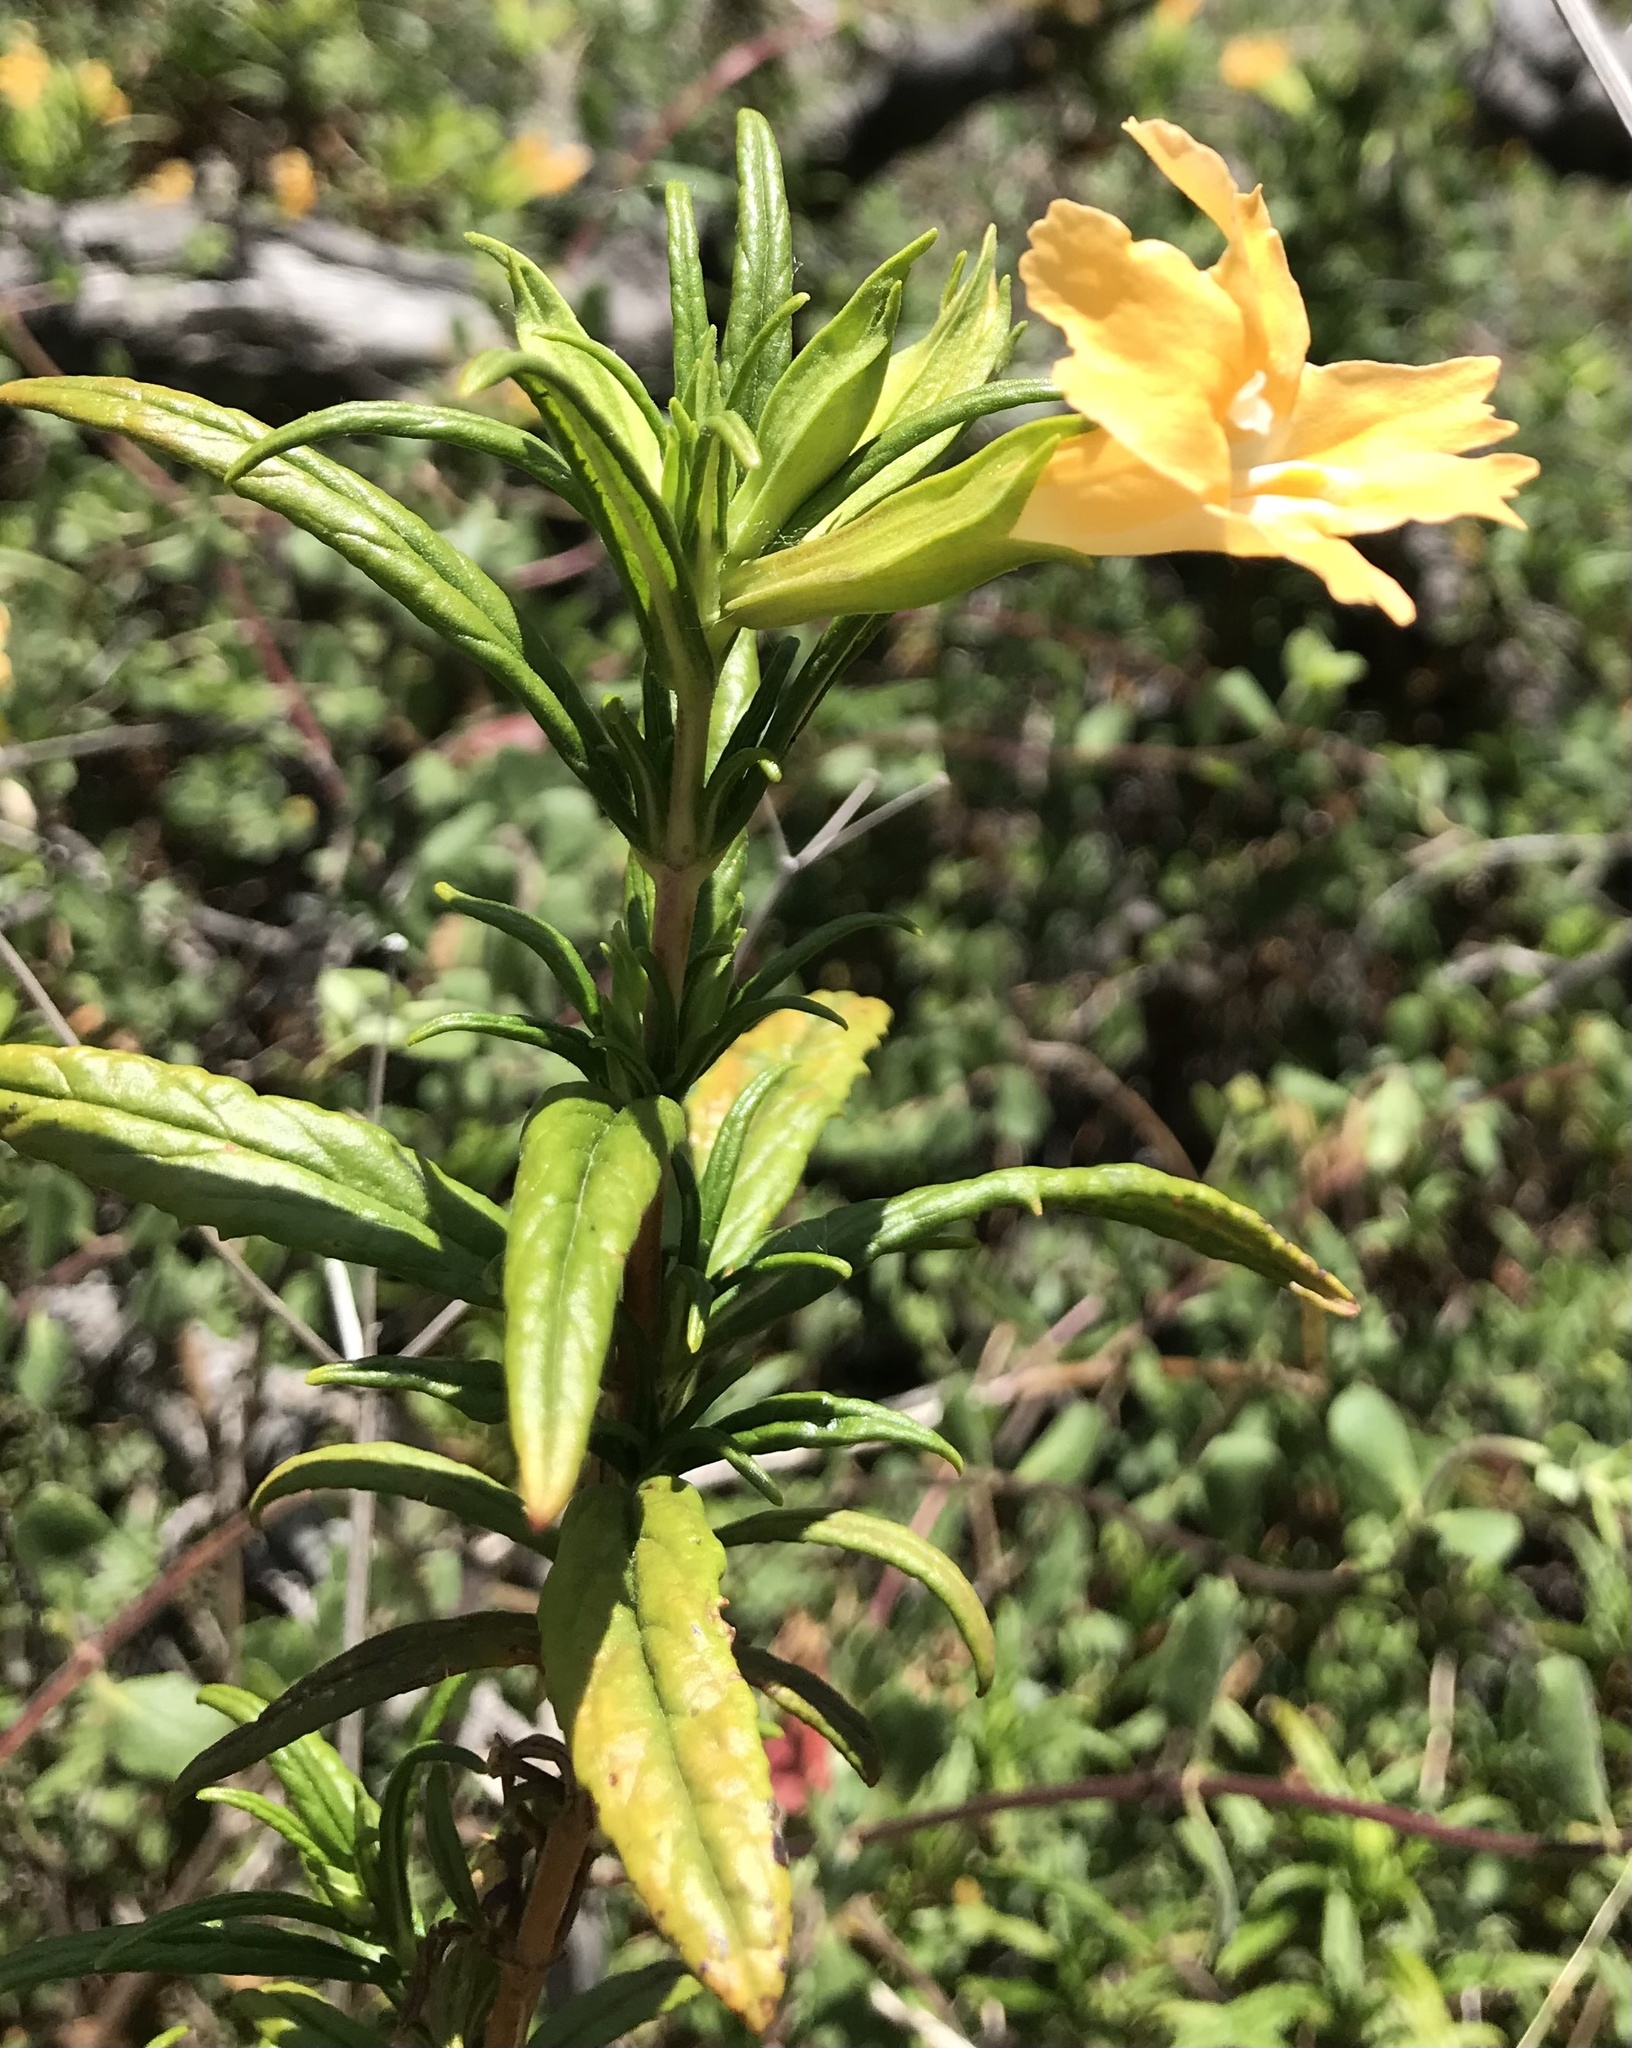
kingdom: Plantae
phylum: Tracheophyta
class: Magnoliopsida
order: Lamiales
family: Phrymaceae
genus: Diplacus
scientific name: Diplacus australis
